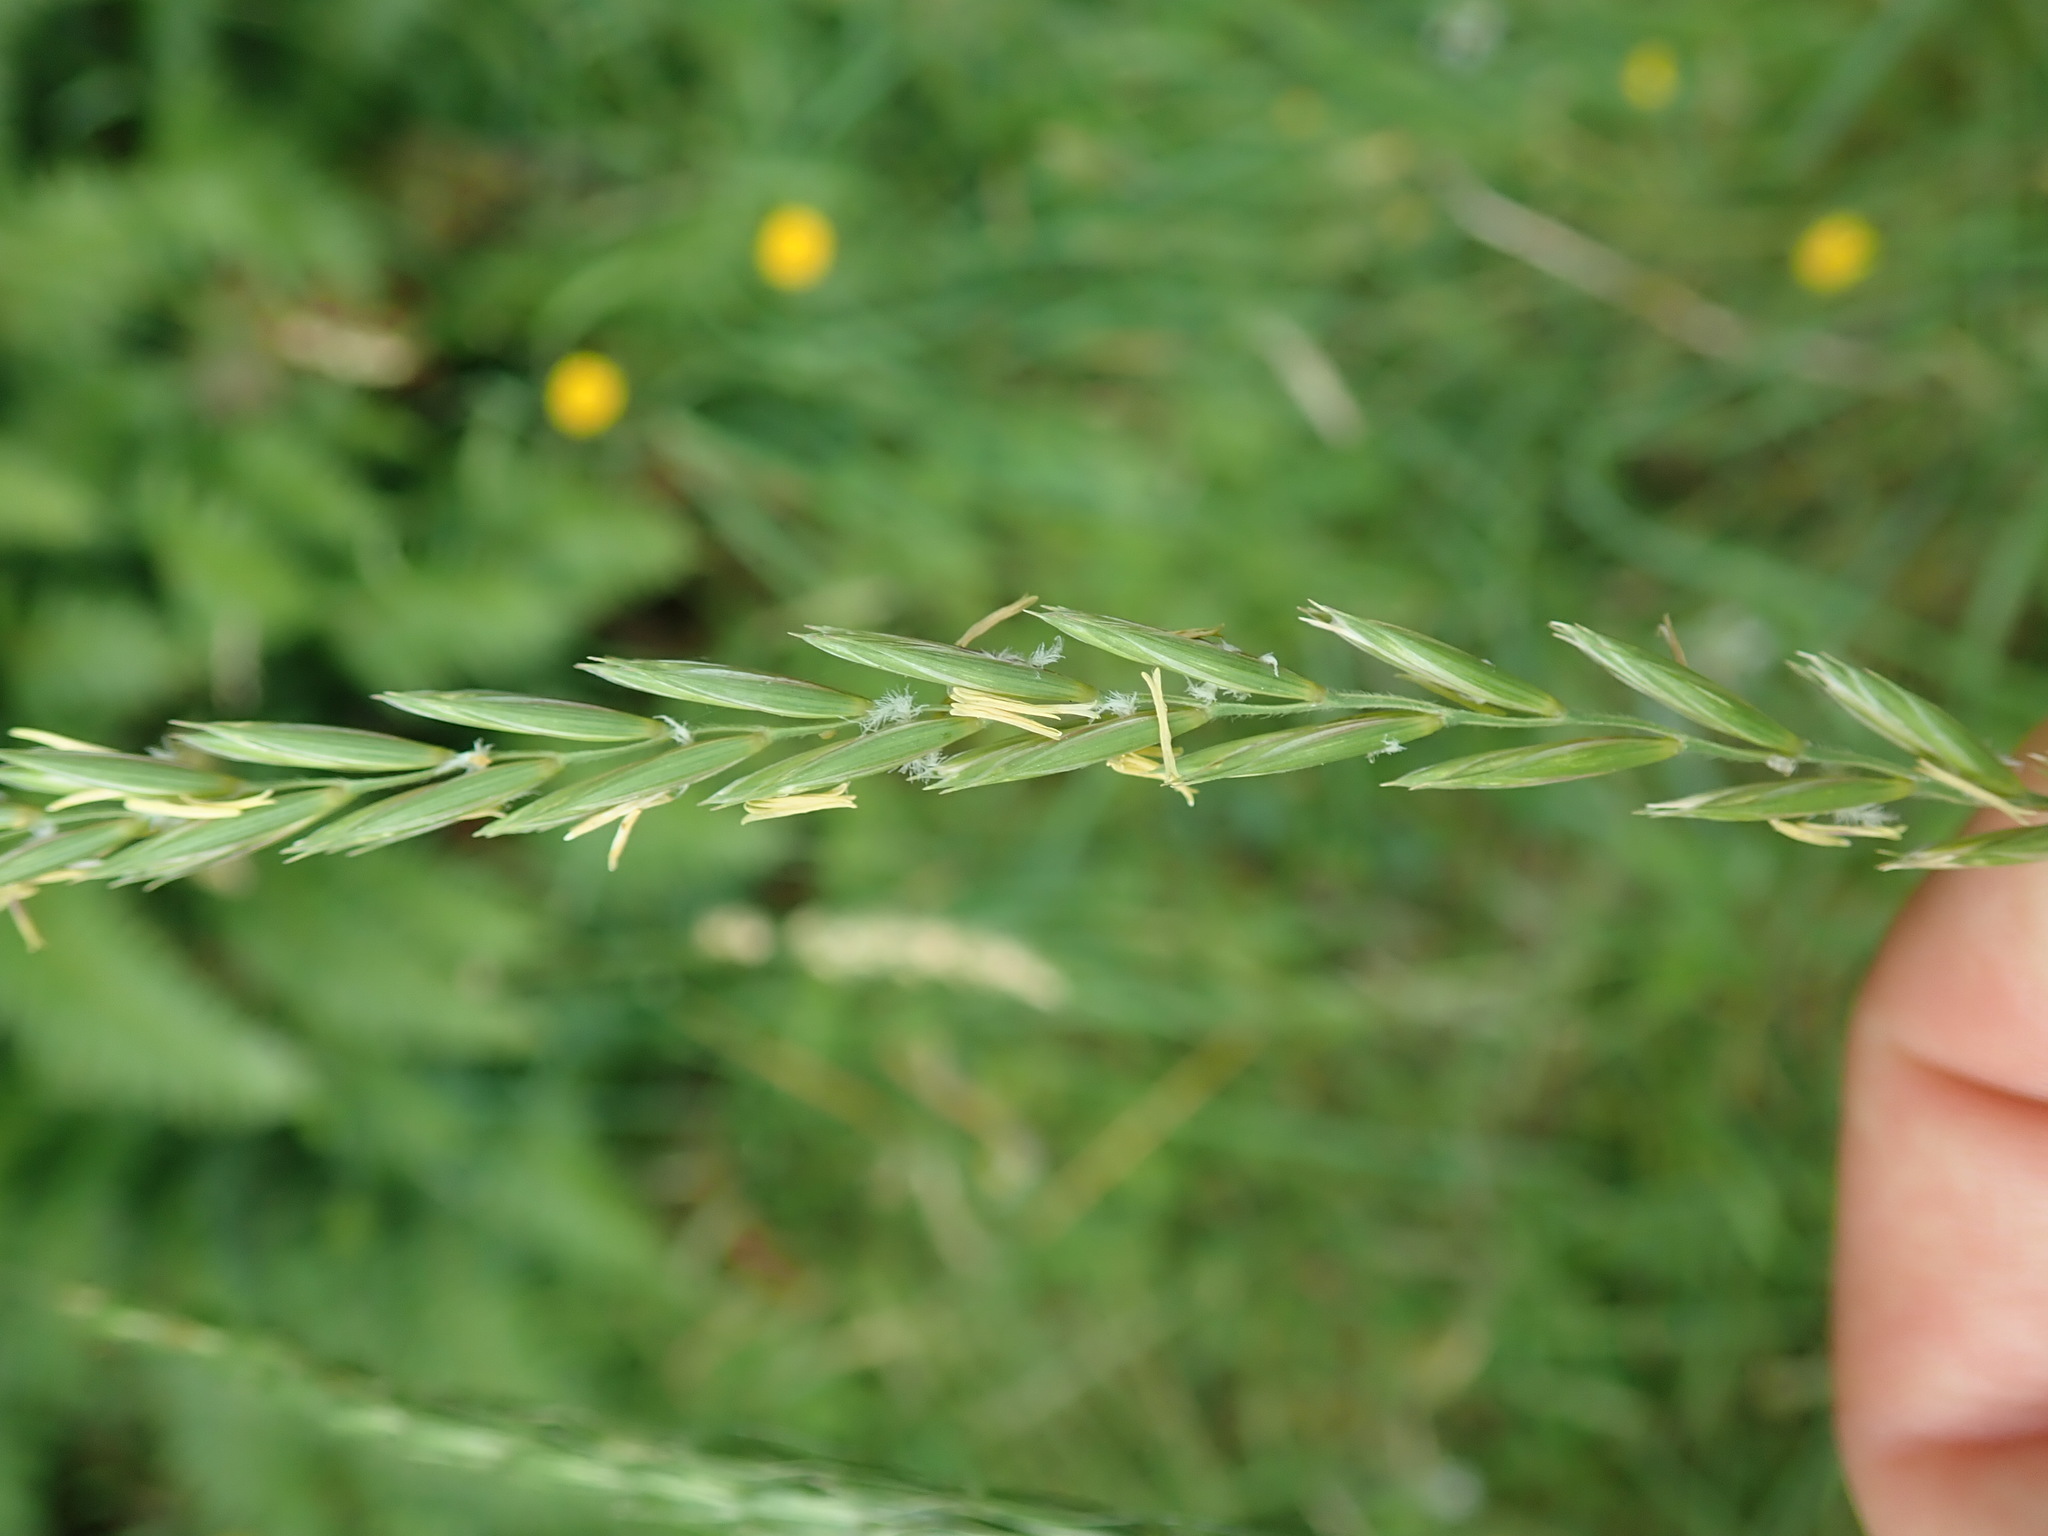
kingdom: Plantae
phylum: Tracheophyta
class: Liliopsida
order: Poales
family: Poaceae
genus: Elymus
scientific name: Elymus repens
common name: Quackgrass
